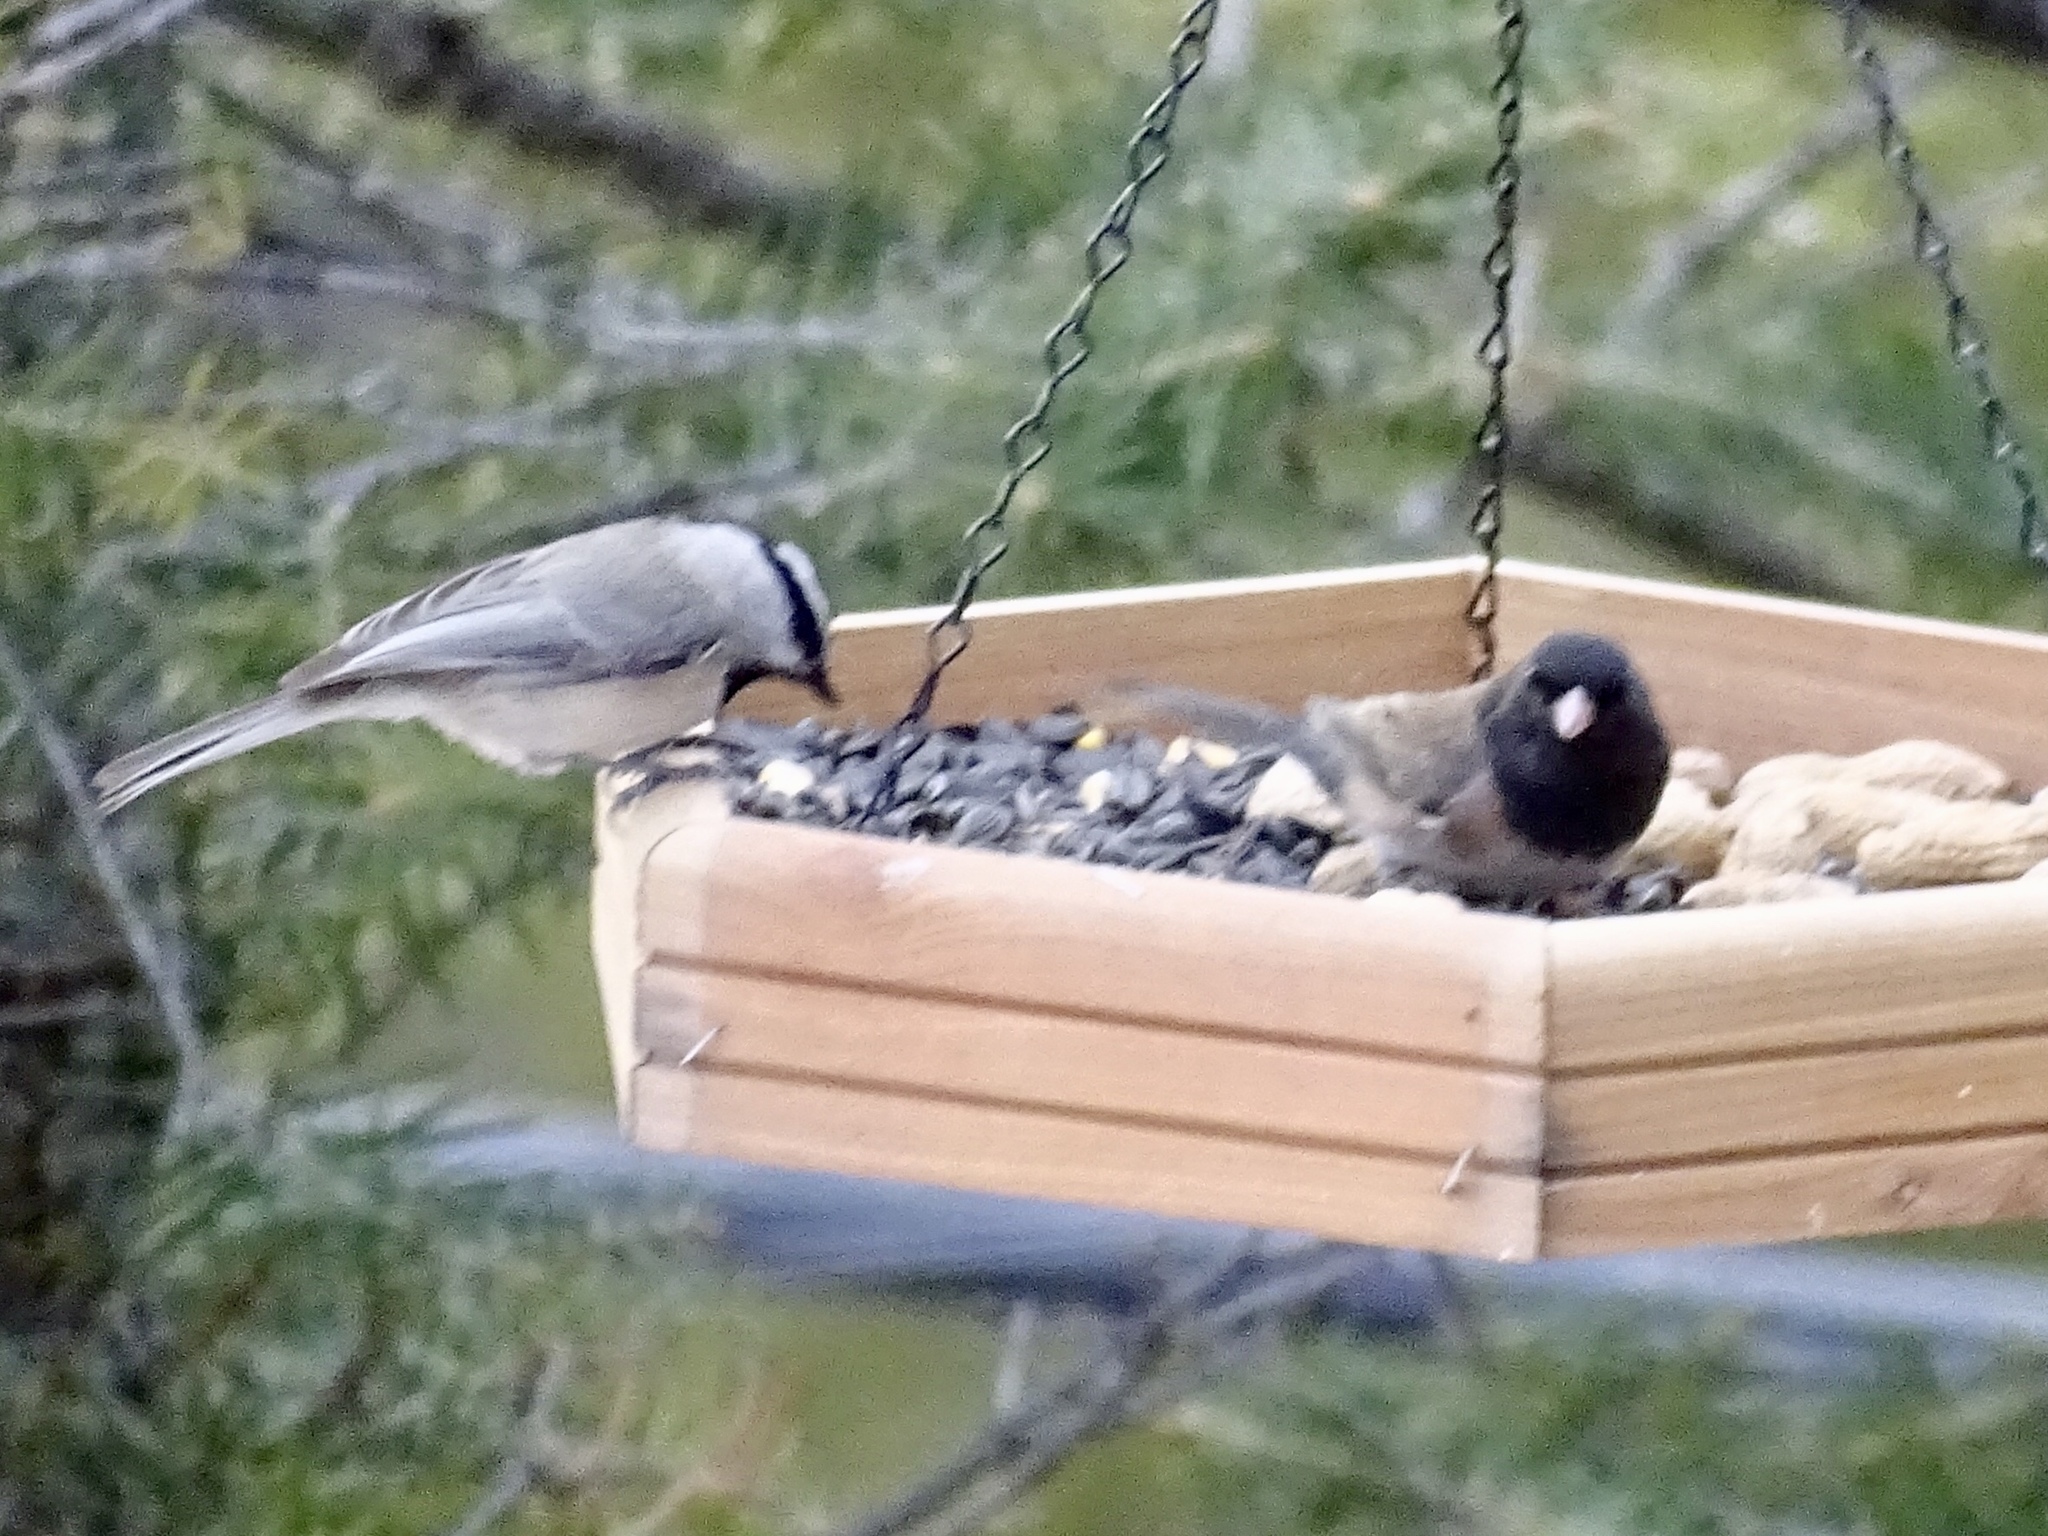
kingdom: Animalia
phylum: Chordata
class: Aves
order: Passeriformes
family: Paridae
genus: Poecile
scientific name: Poecile gambeli
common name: Mountain chickadee
